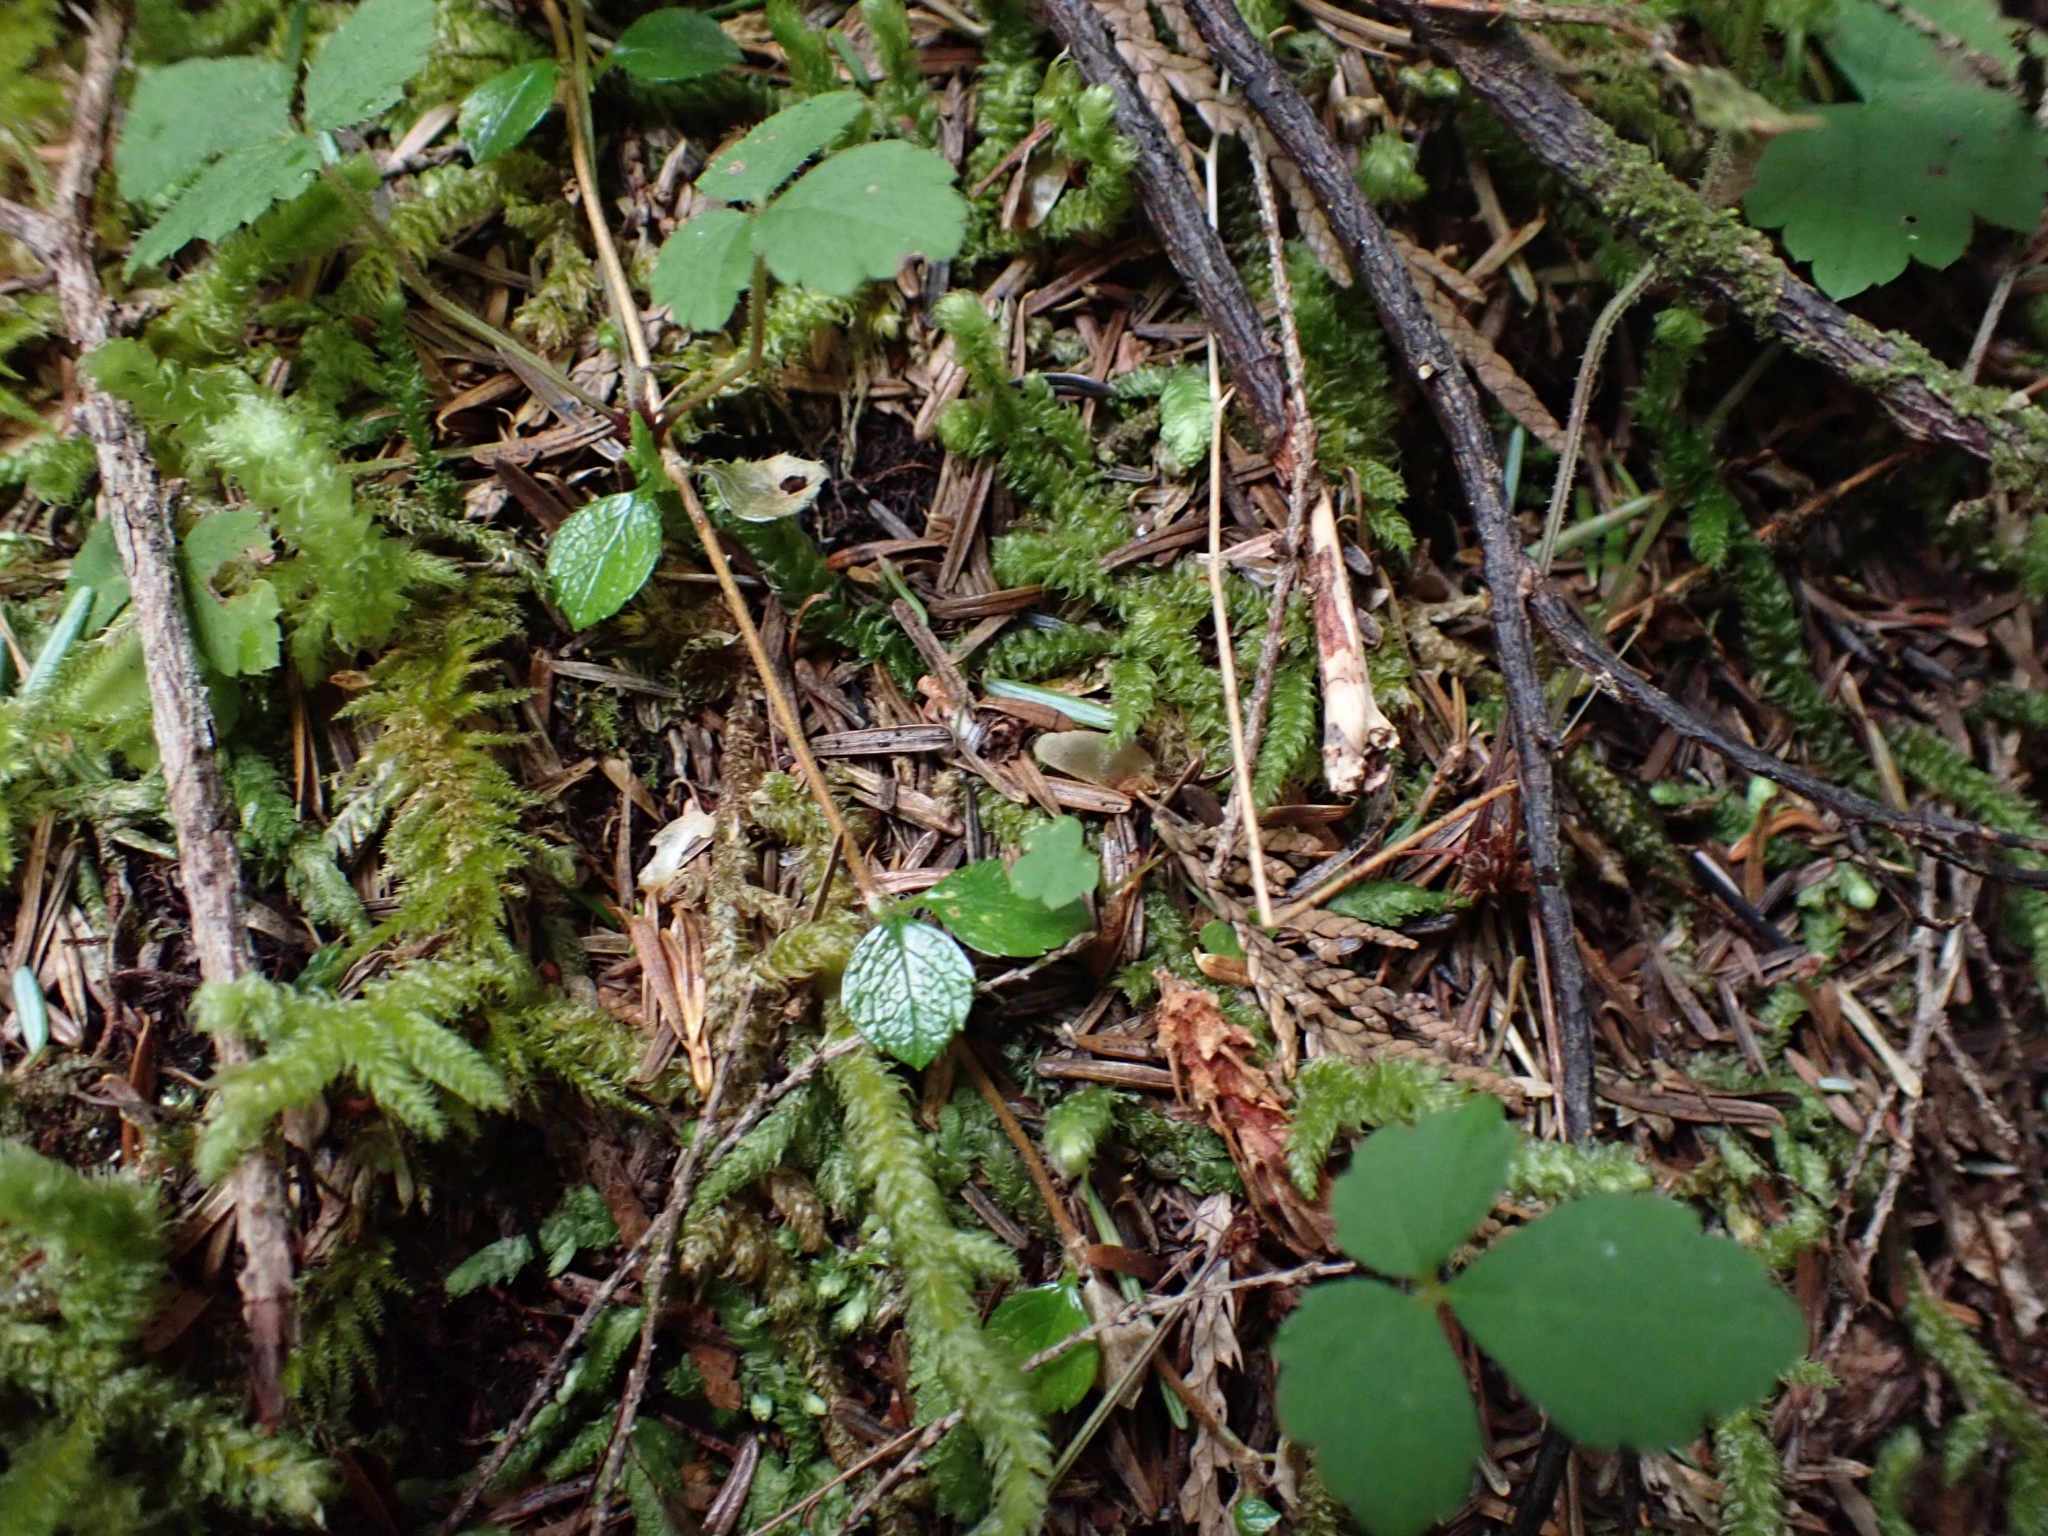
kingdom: Plantae
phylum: Tracheophyta
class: Magnoliopsida
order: Dipsacales
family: Caprifoliaceae
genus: Linnaea
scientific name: Linnaea borealis
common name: Twinflower
